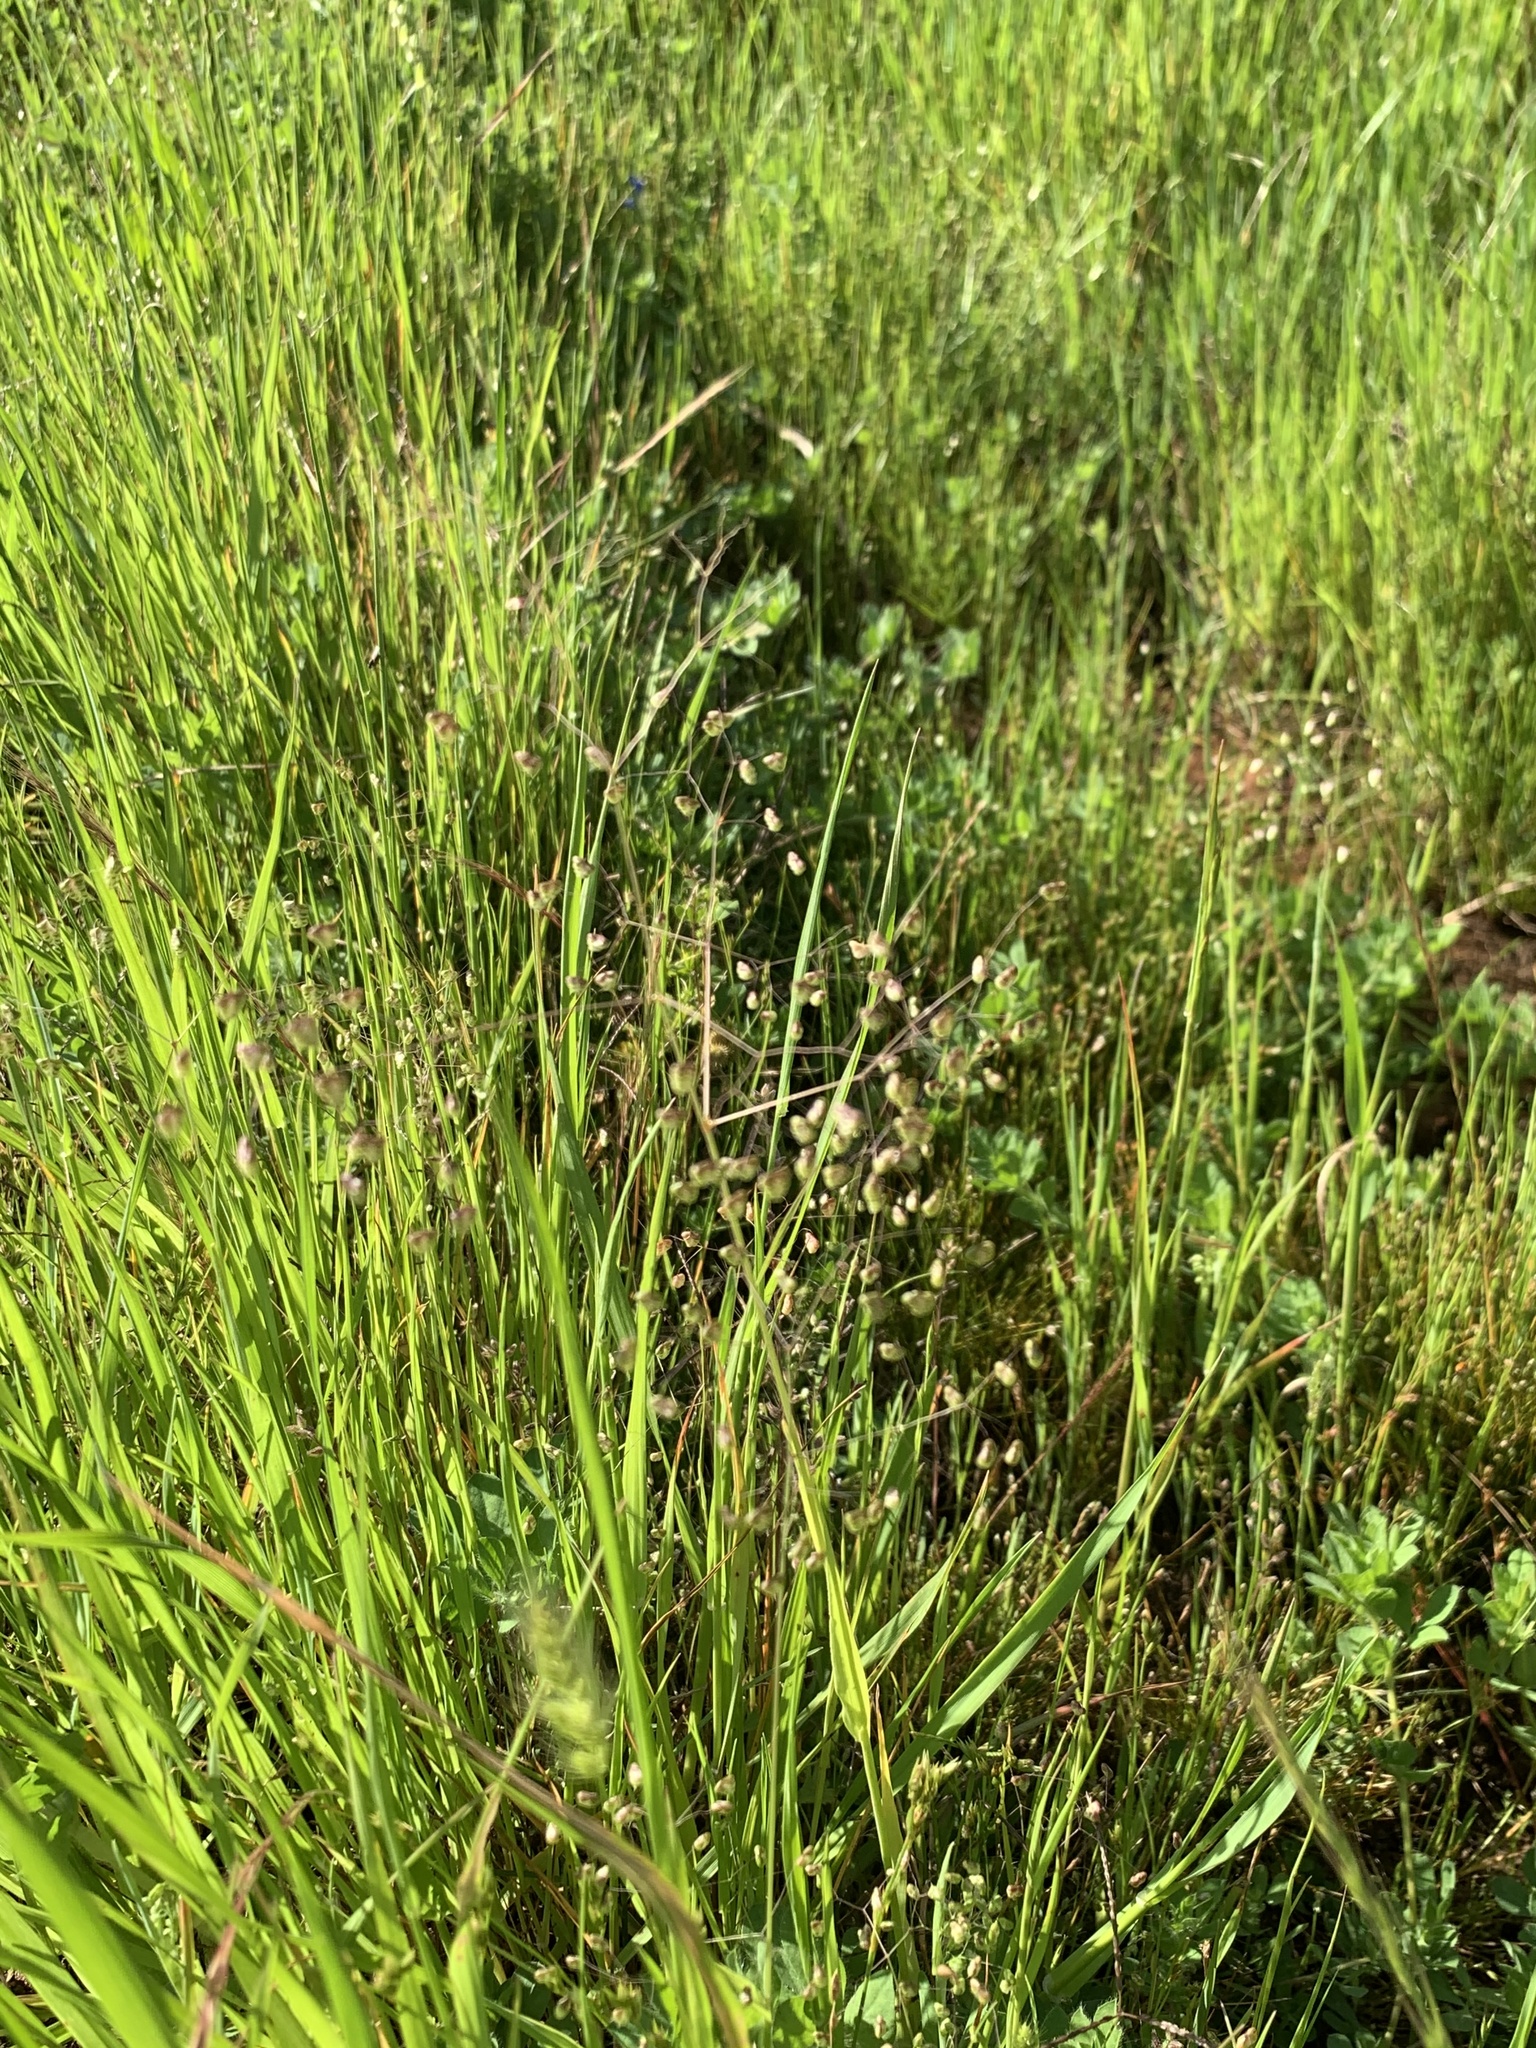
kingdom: Plantae
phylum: Tracheophyta
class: Liliopsida
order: Poales
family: Poaceae
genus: Briza
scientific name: Briza minor
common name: Lesser quaking-grass
